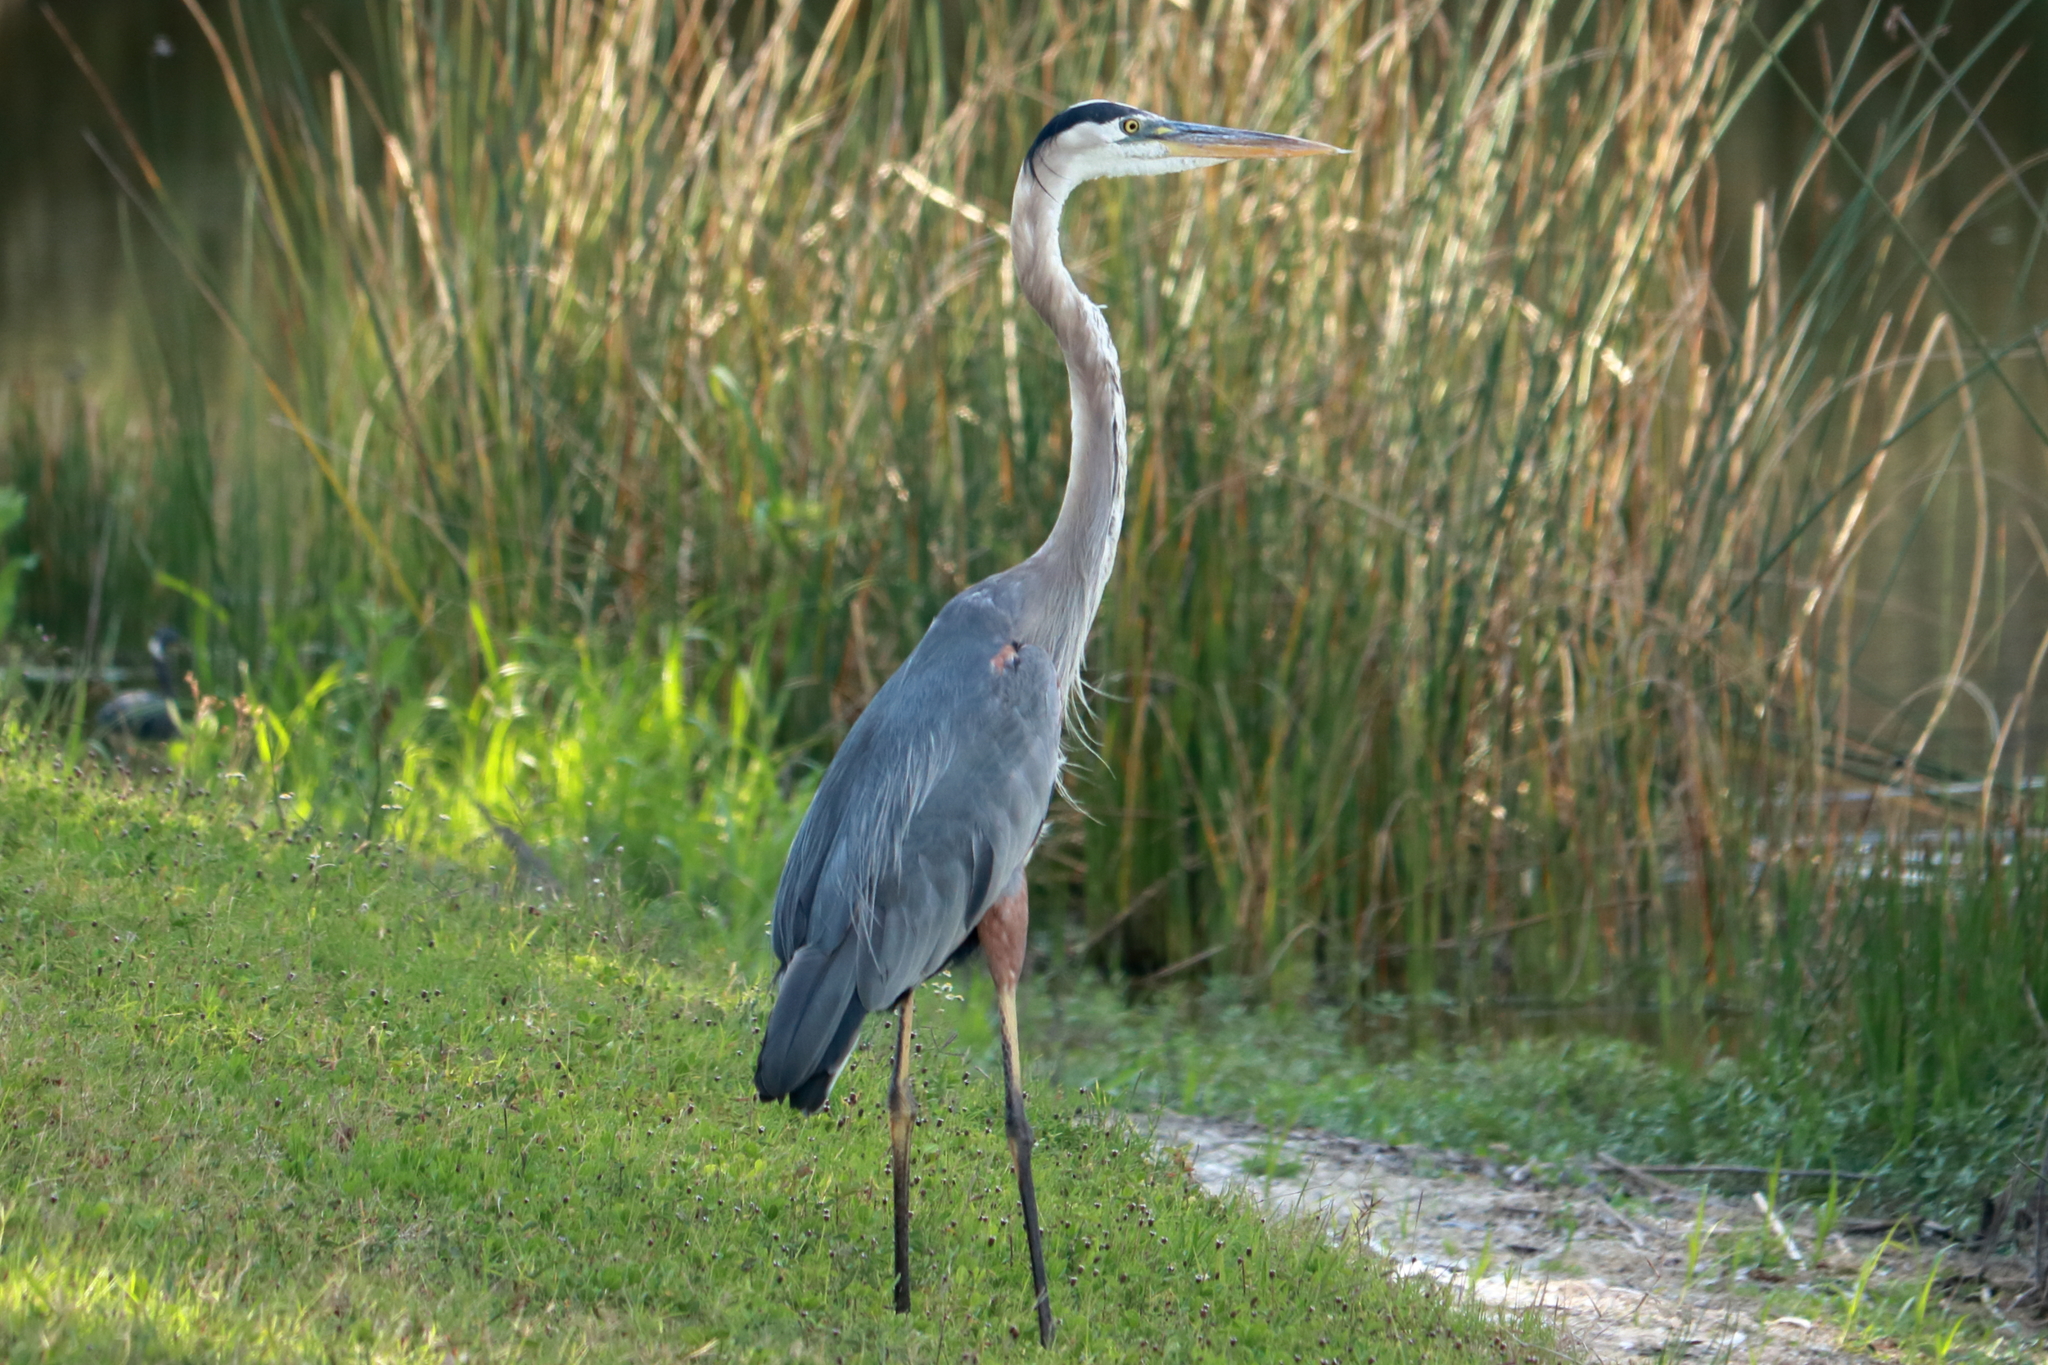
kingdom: Animalia
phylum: Chordata
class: Aves
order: Pelecaniformes
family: Ardeidae
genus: Ardea
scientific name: Ardea herodias
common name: Great blue heron
